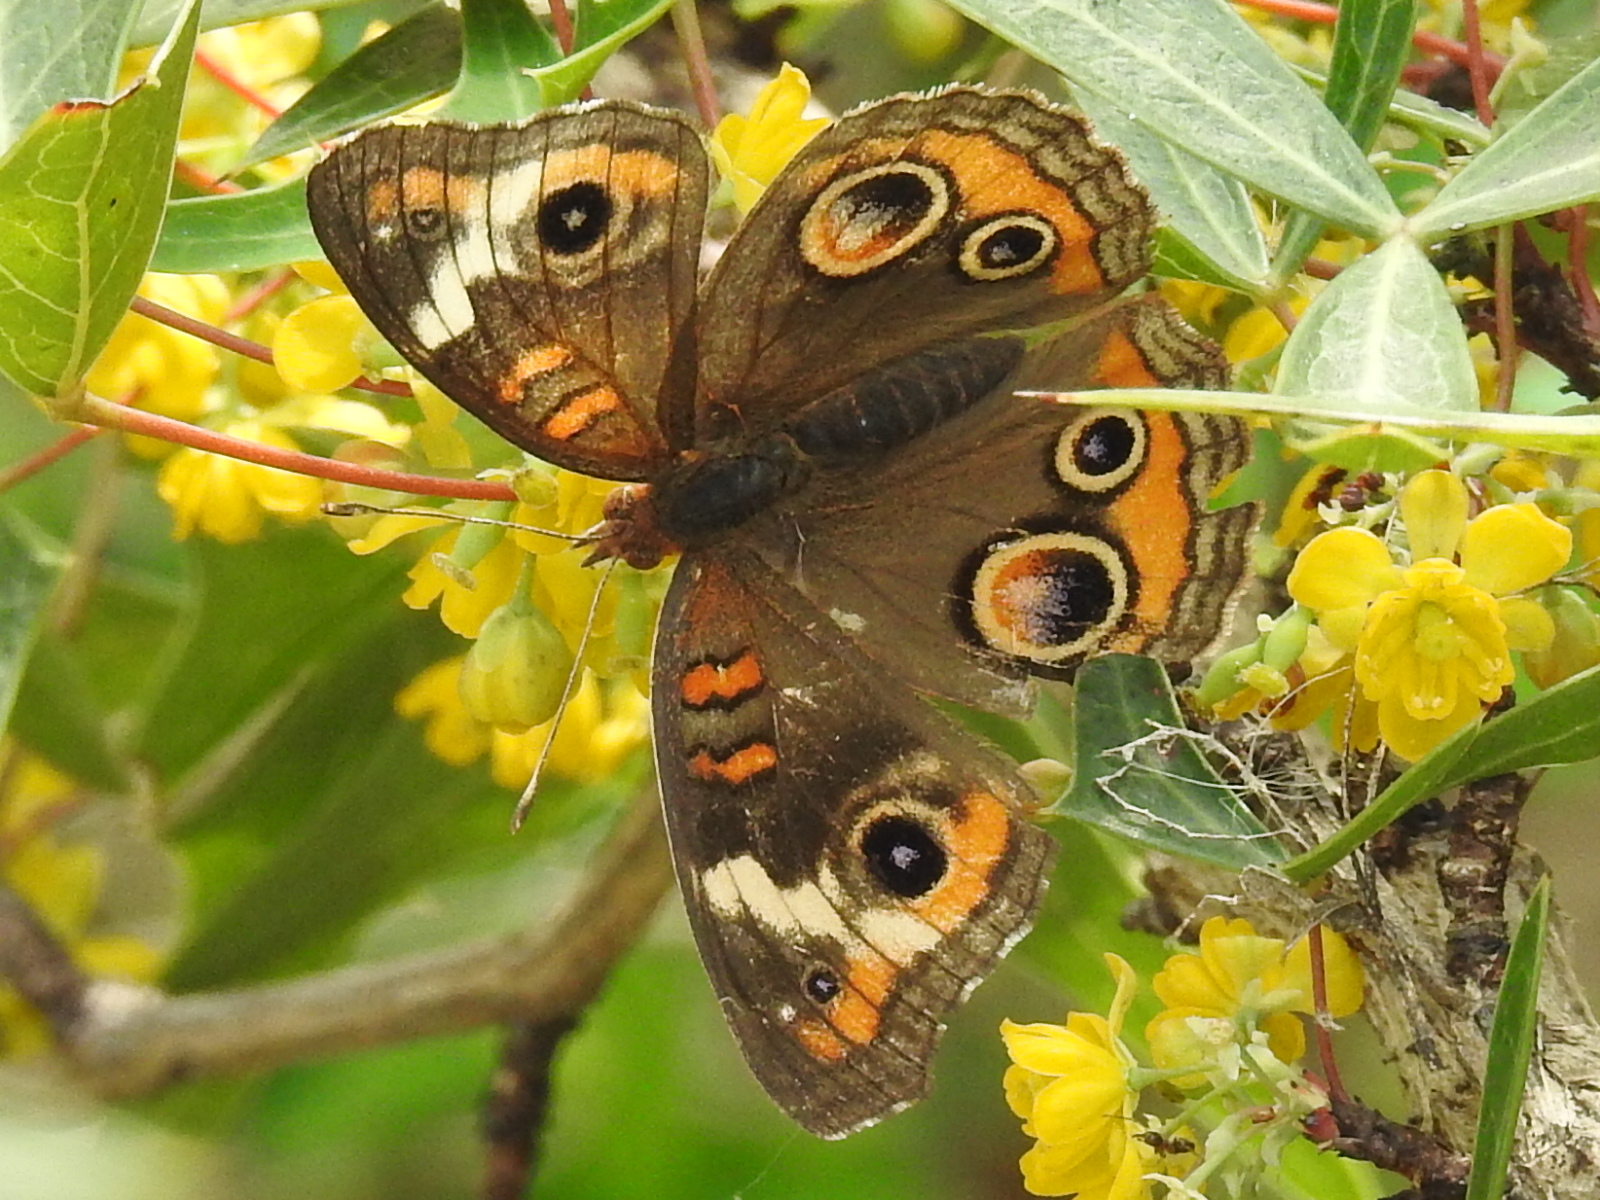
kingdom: Animalia
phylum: Arthropoda
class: Insecta
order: Lepidoptera
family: Nymphalidae
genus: Junonia
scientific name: Junonia coenia
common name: Common buckeye
